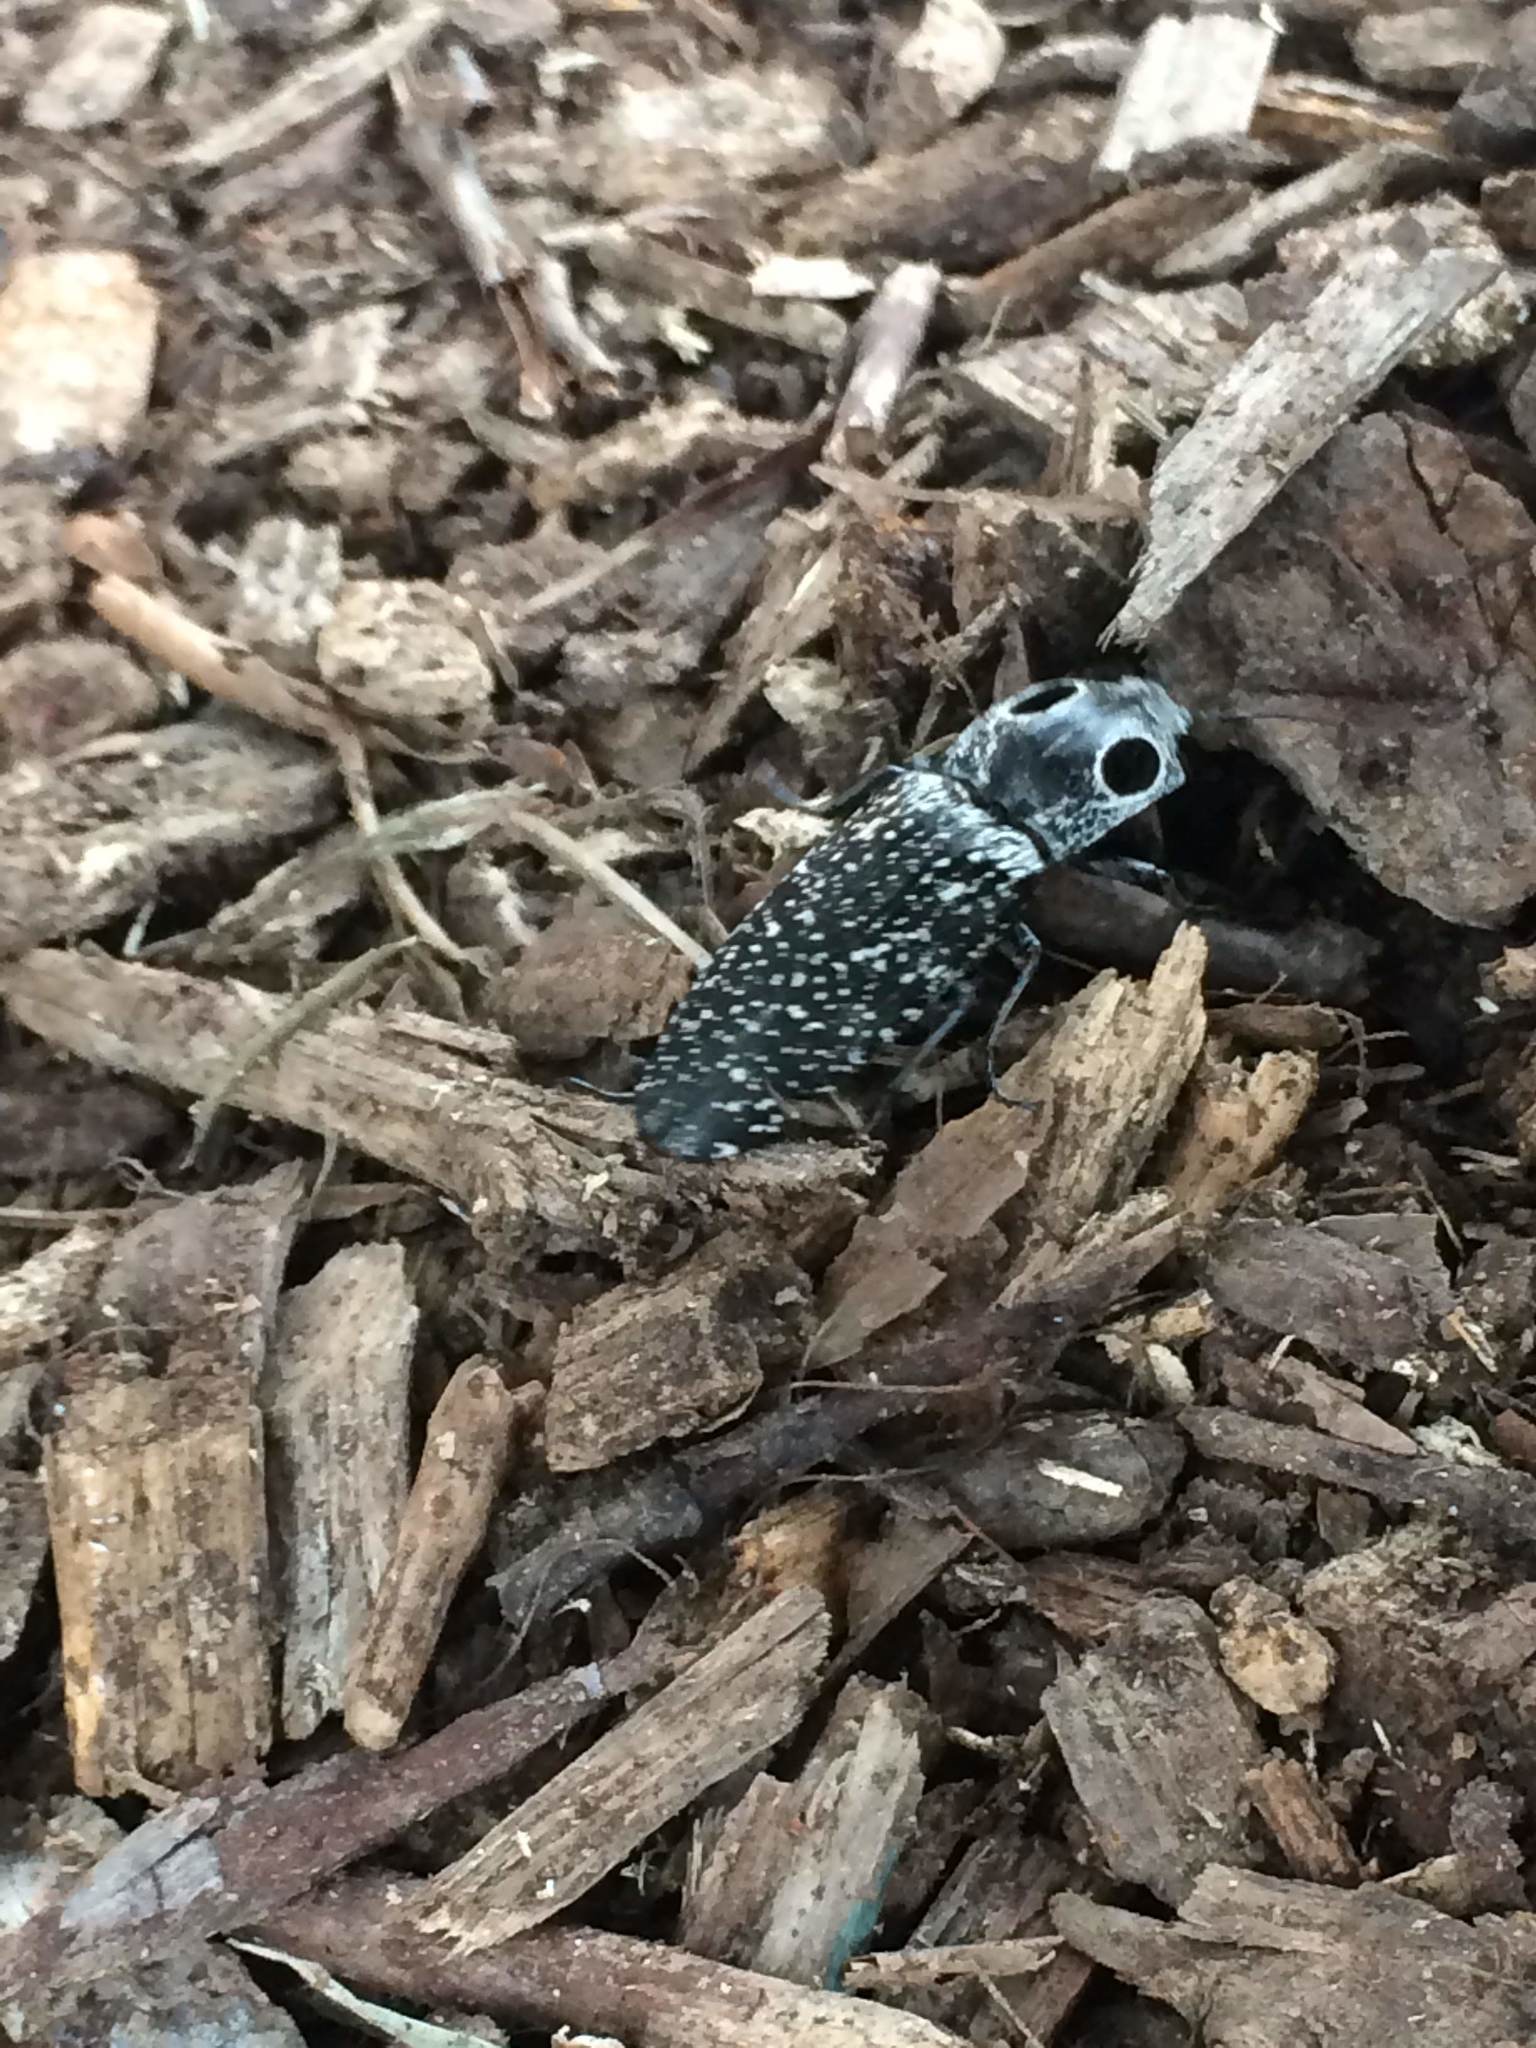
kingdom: Animalia
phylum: Arthropoda
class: Insecta
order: Coleoptera
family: Elateridae
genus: Alaus
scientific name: Alaus oculatus
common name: Eastern eyed click beetle
